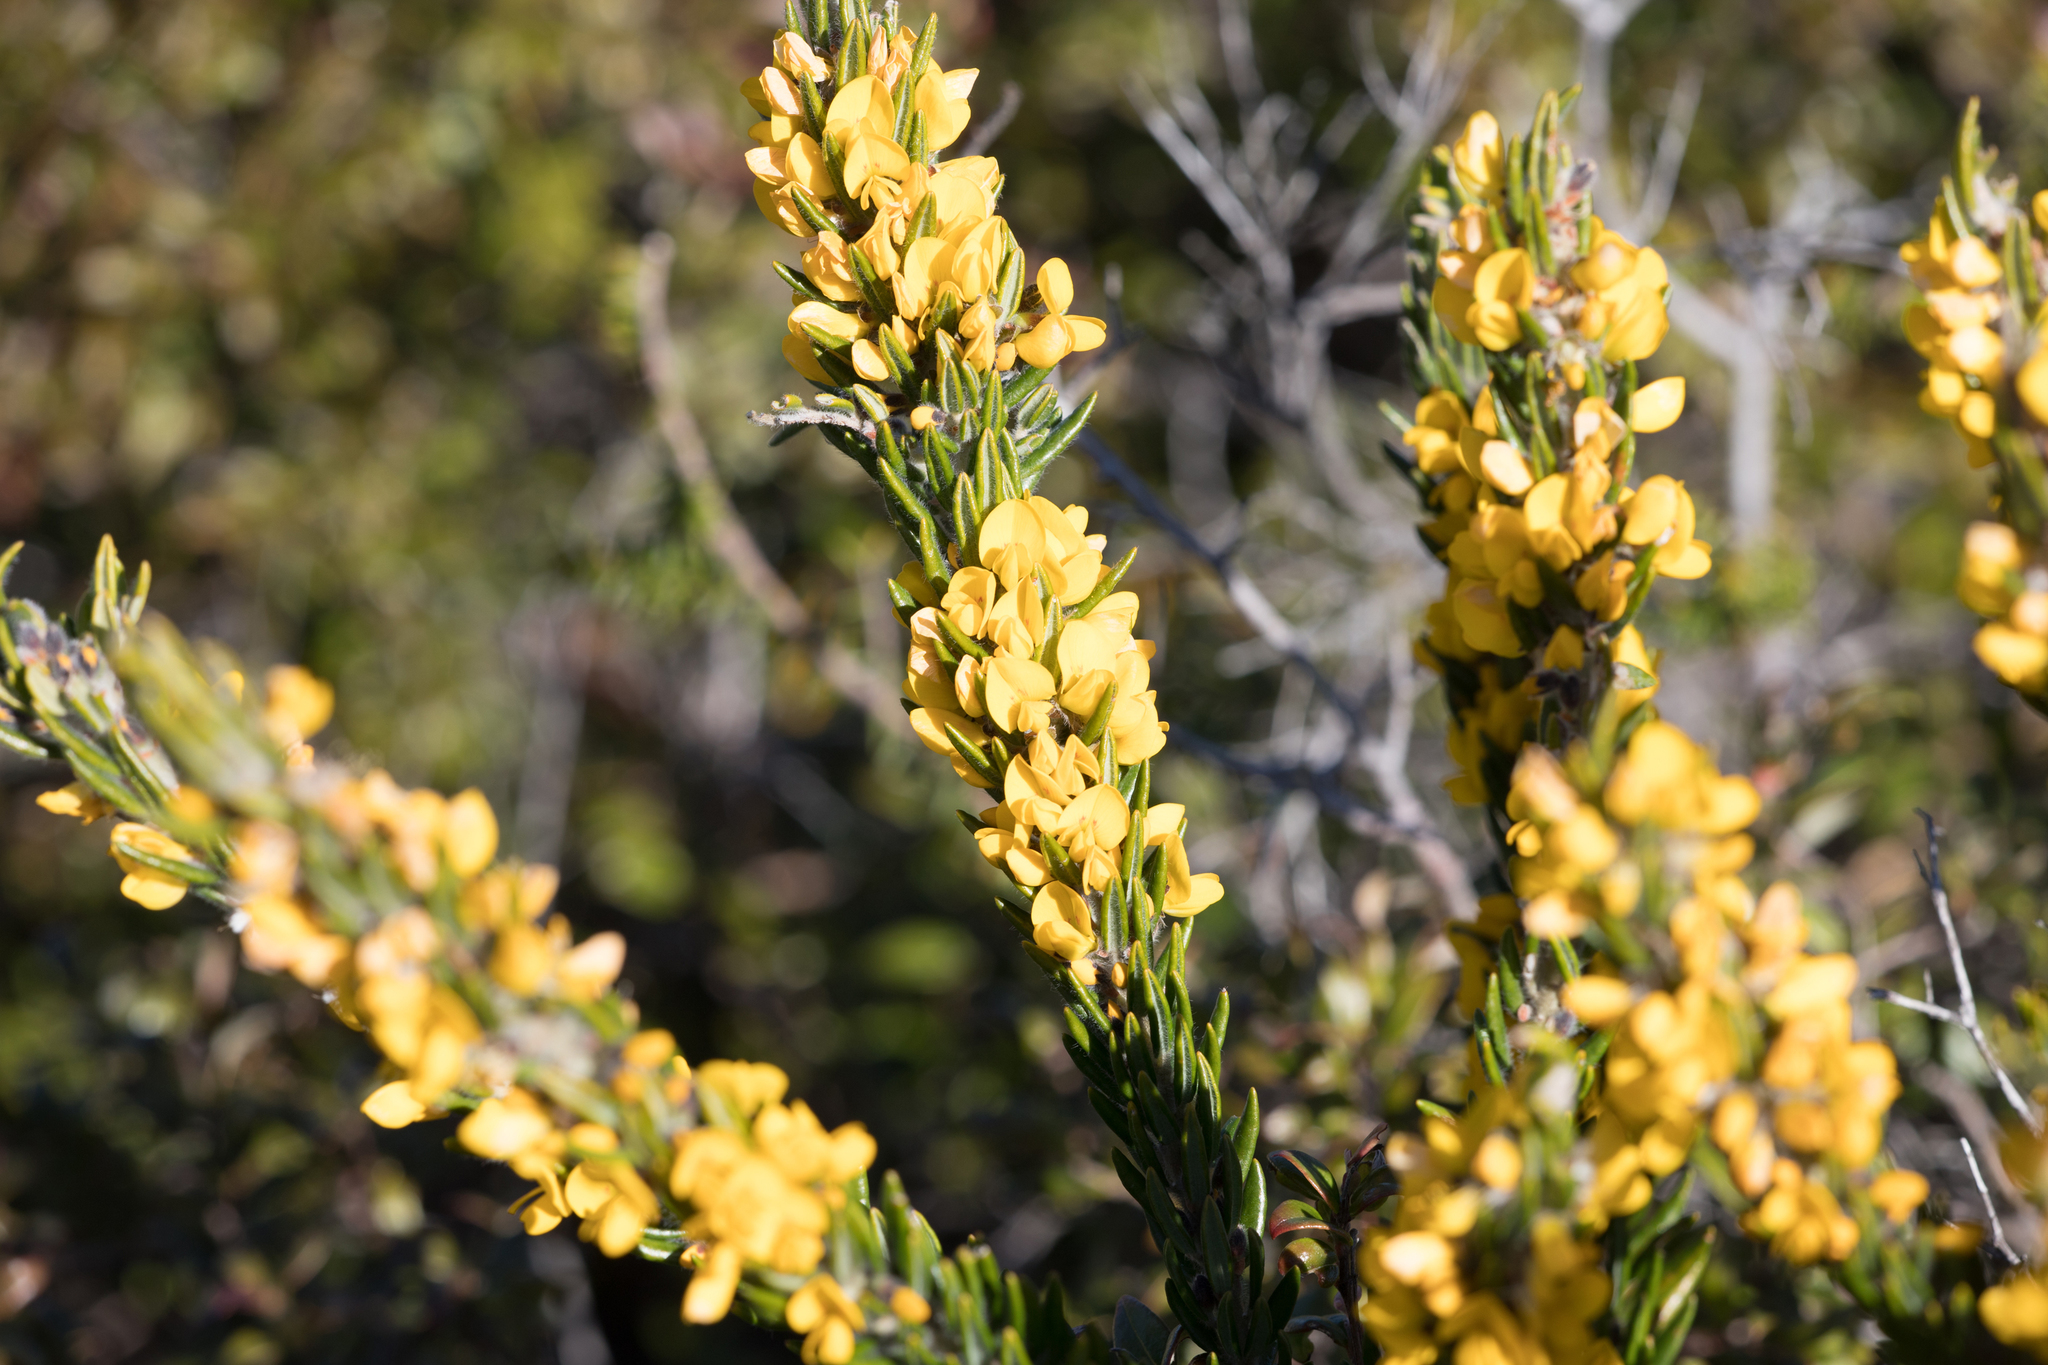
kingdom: Plantae
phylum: Tracheophyta
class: Magnoliopsida
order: Fabales
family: Fabaceae
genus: Aotus
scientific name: Aotus lanigera
